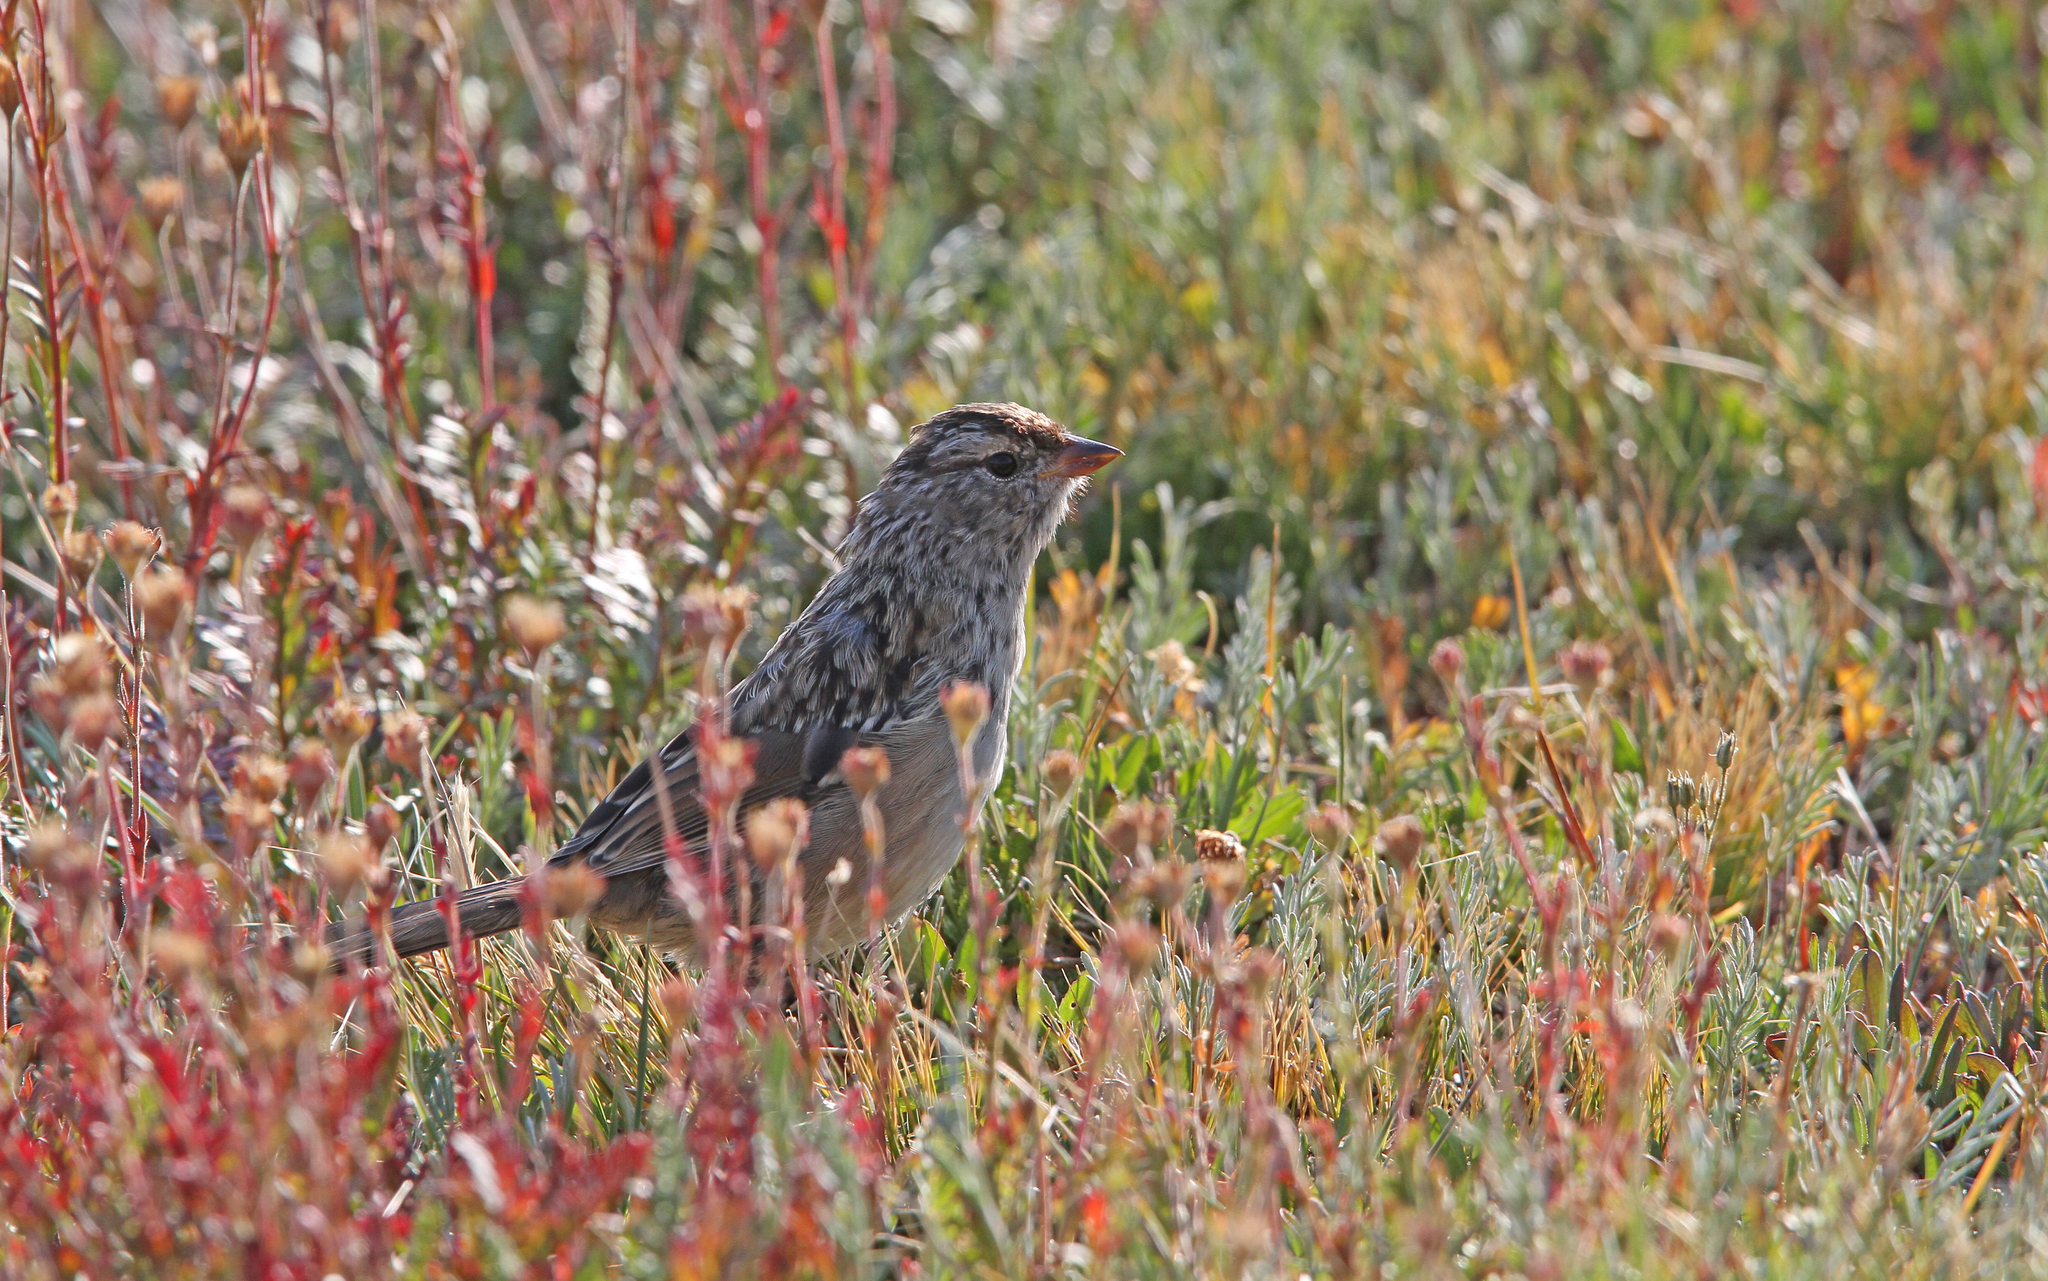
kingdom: Animalia
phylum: Chordata
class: Aves
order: Passeriformes
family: Passerellidae
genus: Zonotrichia
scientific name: Zonotrichia leucophrys
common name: White-crowned sparrow
